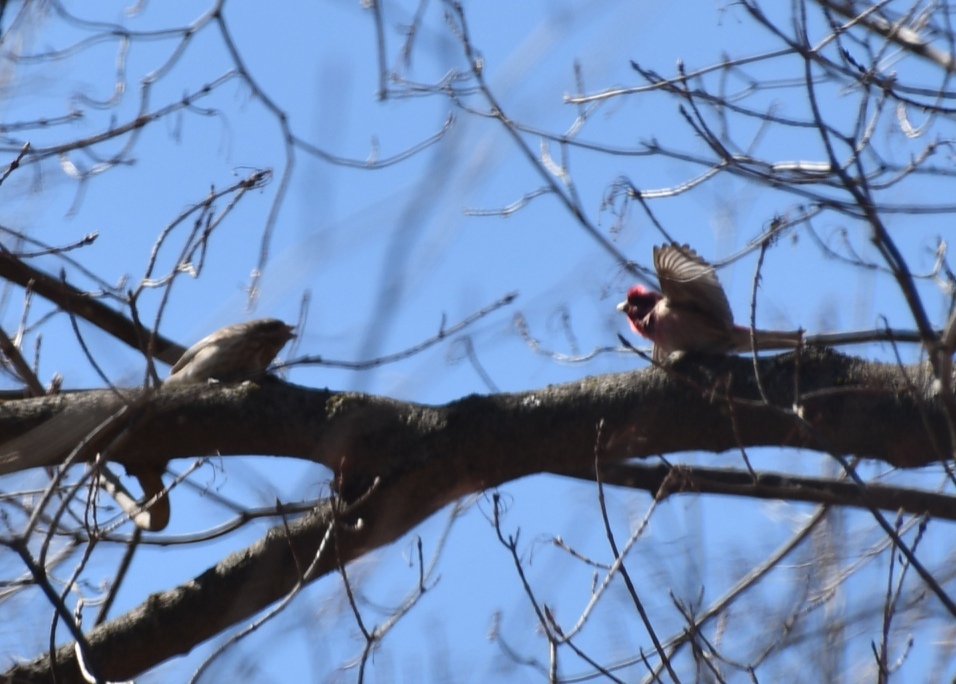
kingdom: Animalia
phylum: Chordata
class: Aves
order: Passeriformes
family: Fringillidae
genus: Haemorhous
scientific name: Haemorhous purpureus
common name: Purple finch
